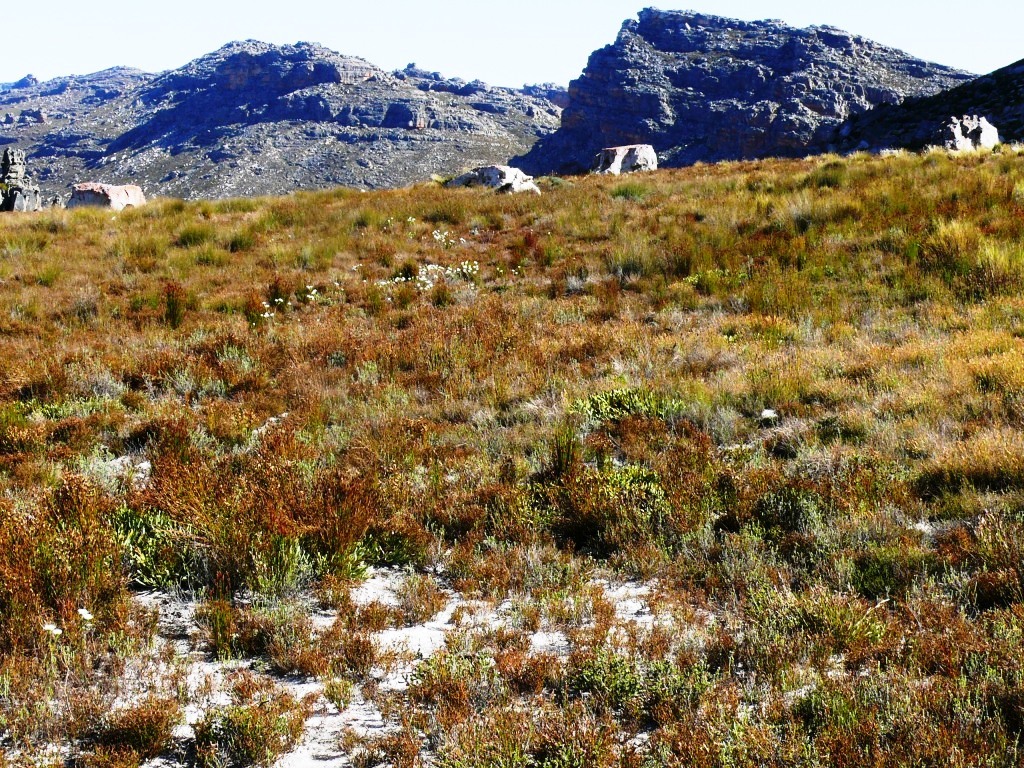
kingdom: Plantae
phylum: Tracheophyta
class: Magnoliopsida
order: Malvales
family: Thymelaeaceae
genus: Lachnaea
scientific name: Lachnaea filamentosa
